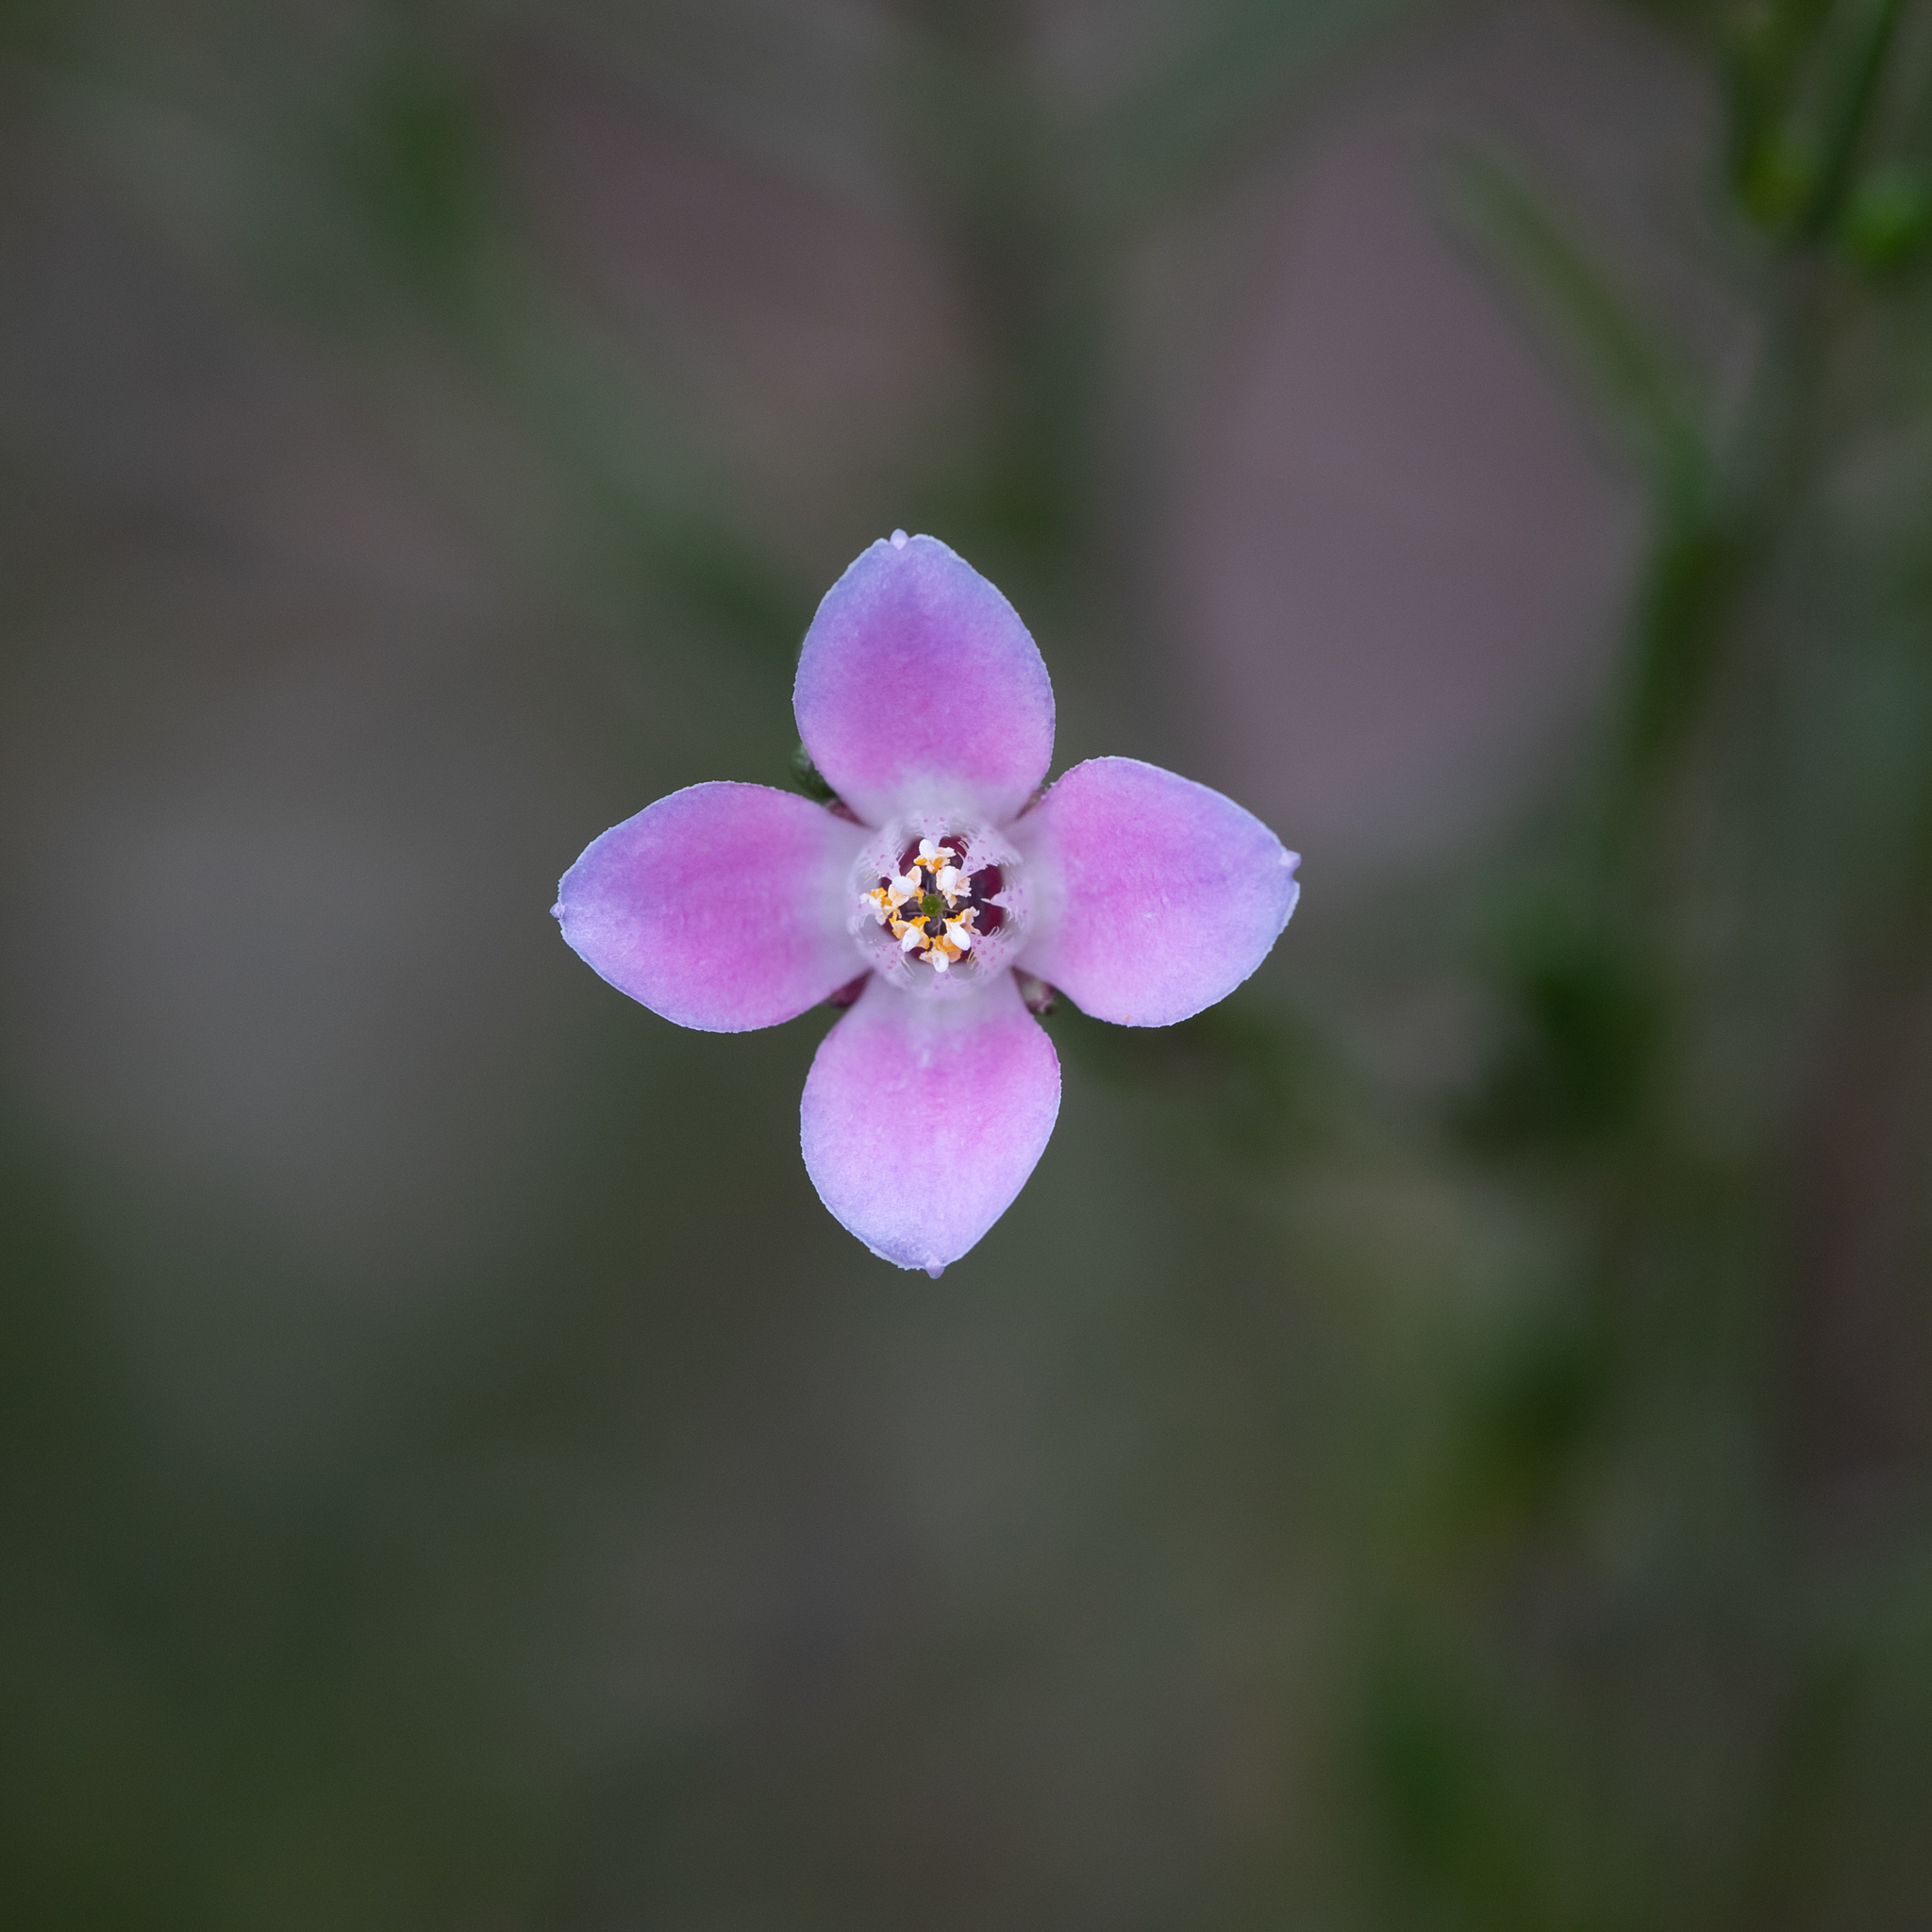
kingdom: Plantae
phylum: Tracheophyta
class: Magnoliopsida
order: Sapindales
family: Rutaceae
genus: Cyanothamnus
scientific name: Cyanothamnus coerulescens
